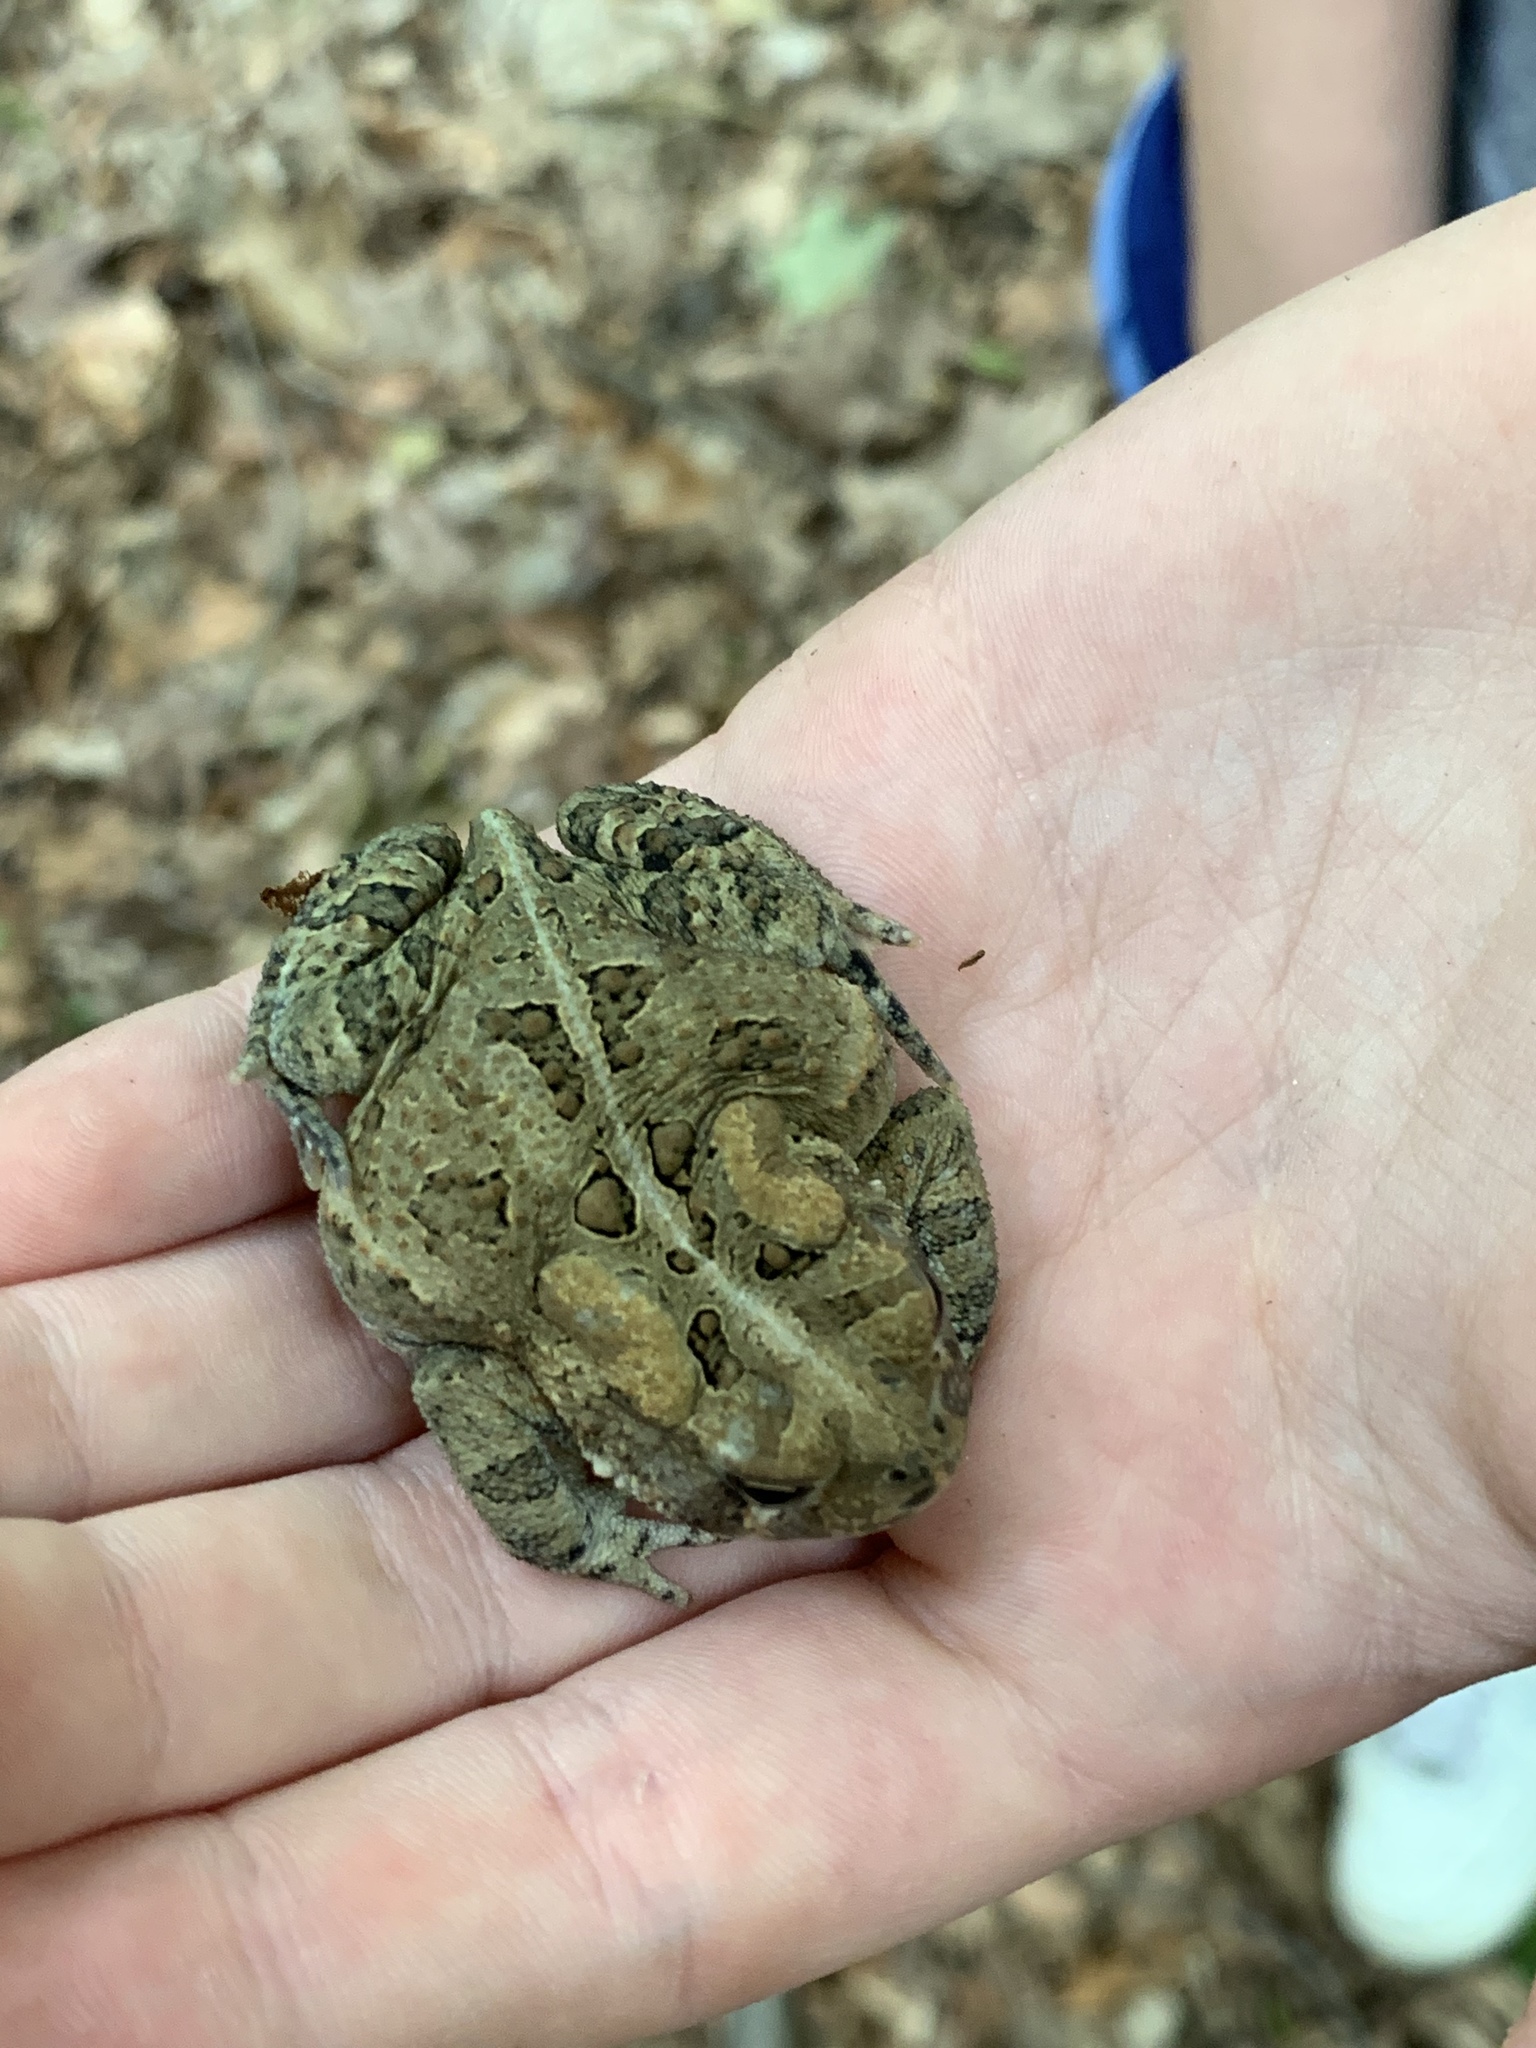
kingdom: Animalia
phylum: Chordata
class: Amphibia
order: Anura
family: Bufonidae
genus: Anaxyrus
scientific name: Anaxyrus americanus
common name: American toad
